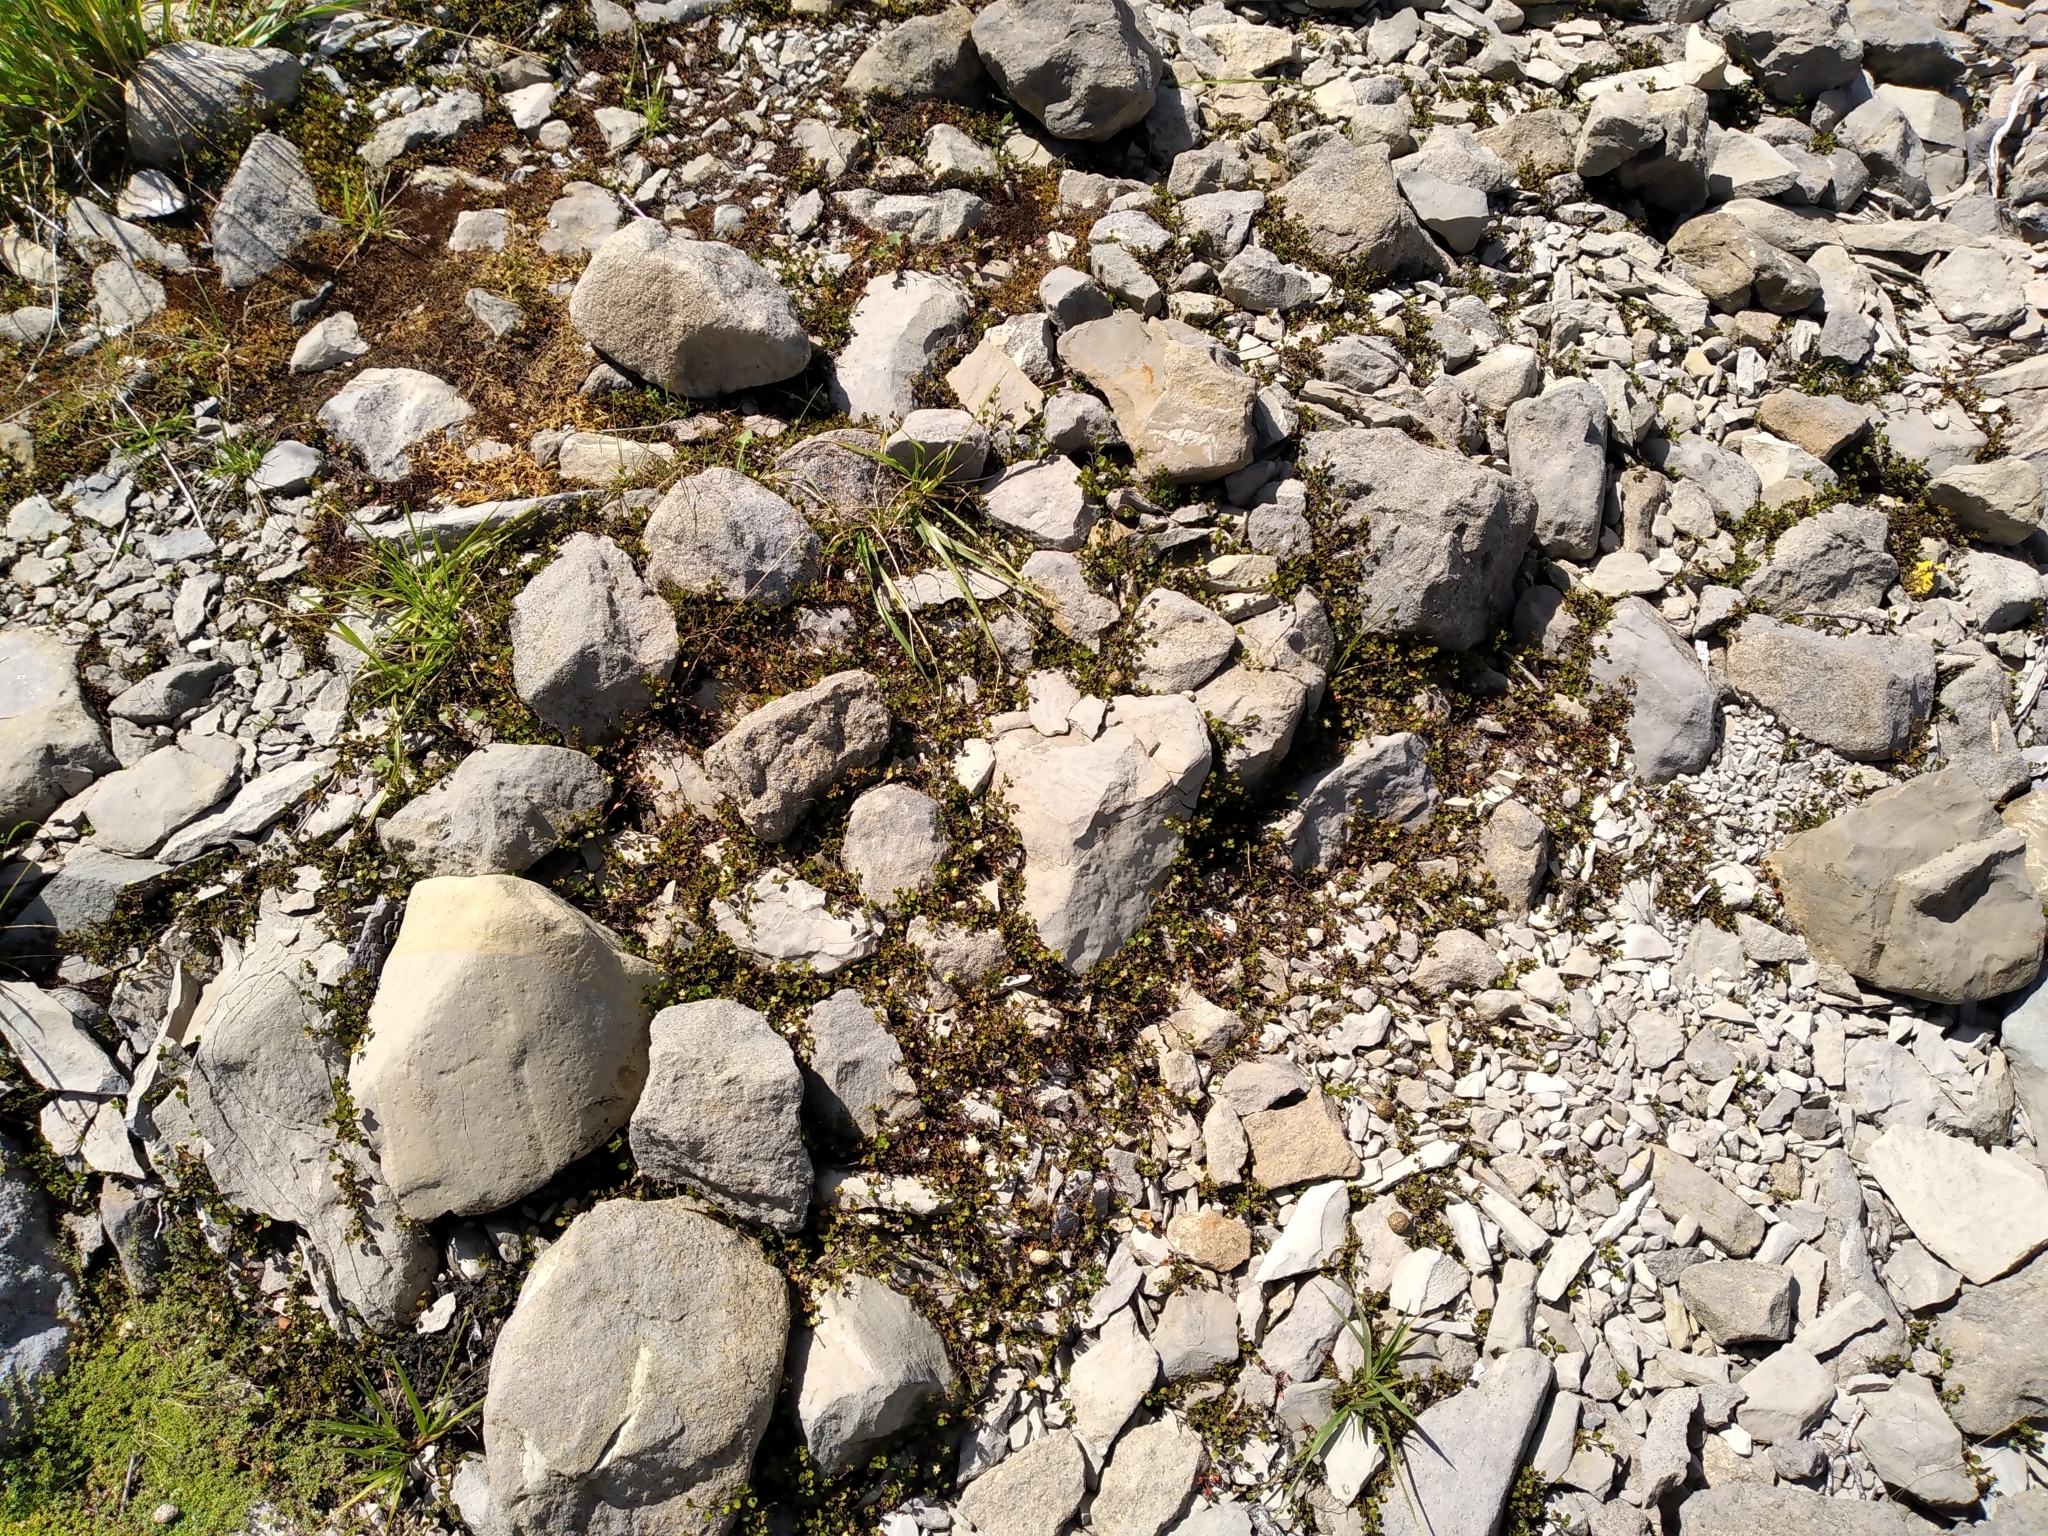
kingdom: Plantae
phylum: Tracheophyta
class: Magnoliopsida
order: Caryophyllales
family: Polygonaceae
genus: Muehlenbeckia
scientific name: Muehlenbeckia axillaris
